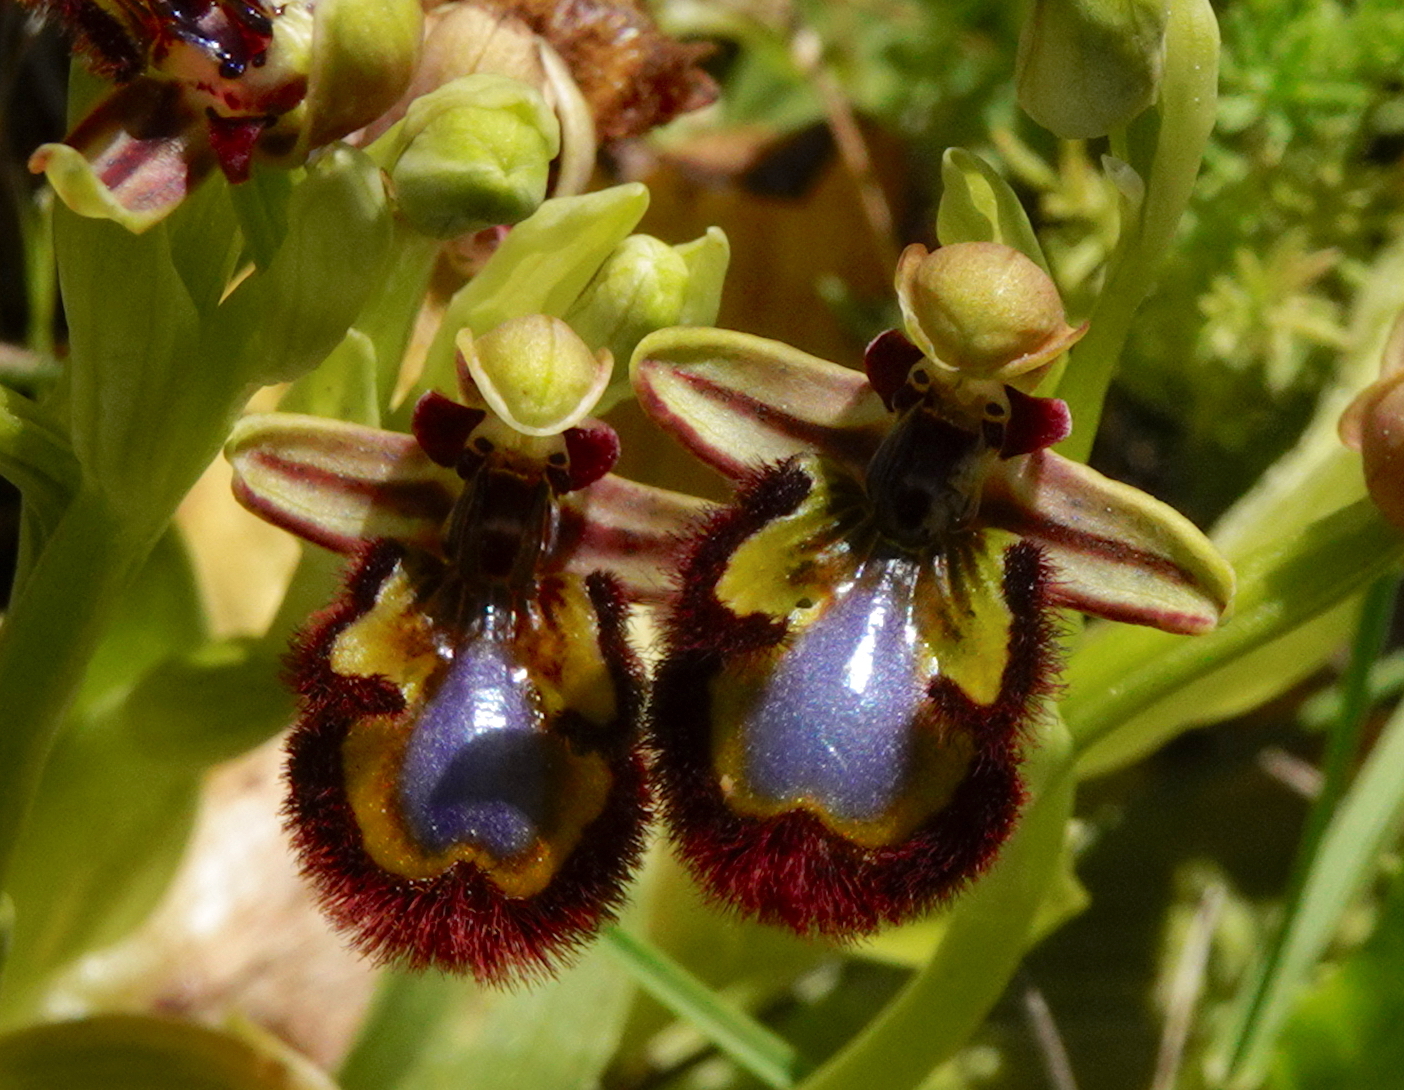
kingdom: Plantae
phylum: Tracheophyta
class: Liliopsida
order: Asparagales
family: Orchidaceae
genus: Ophrys
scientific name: Ophrys speculum
